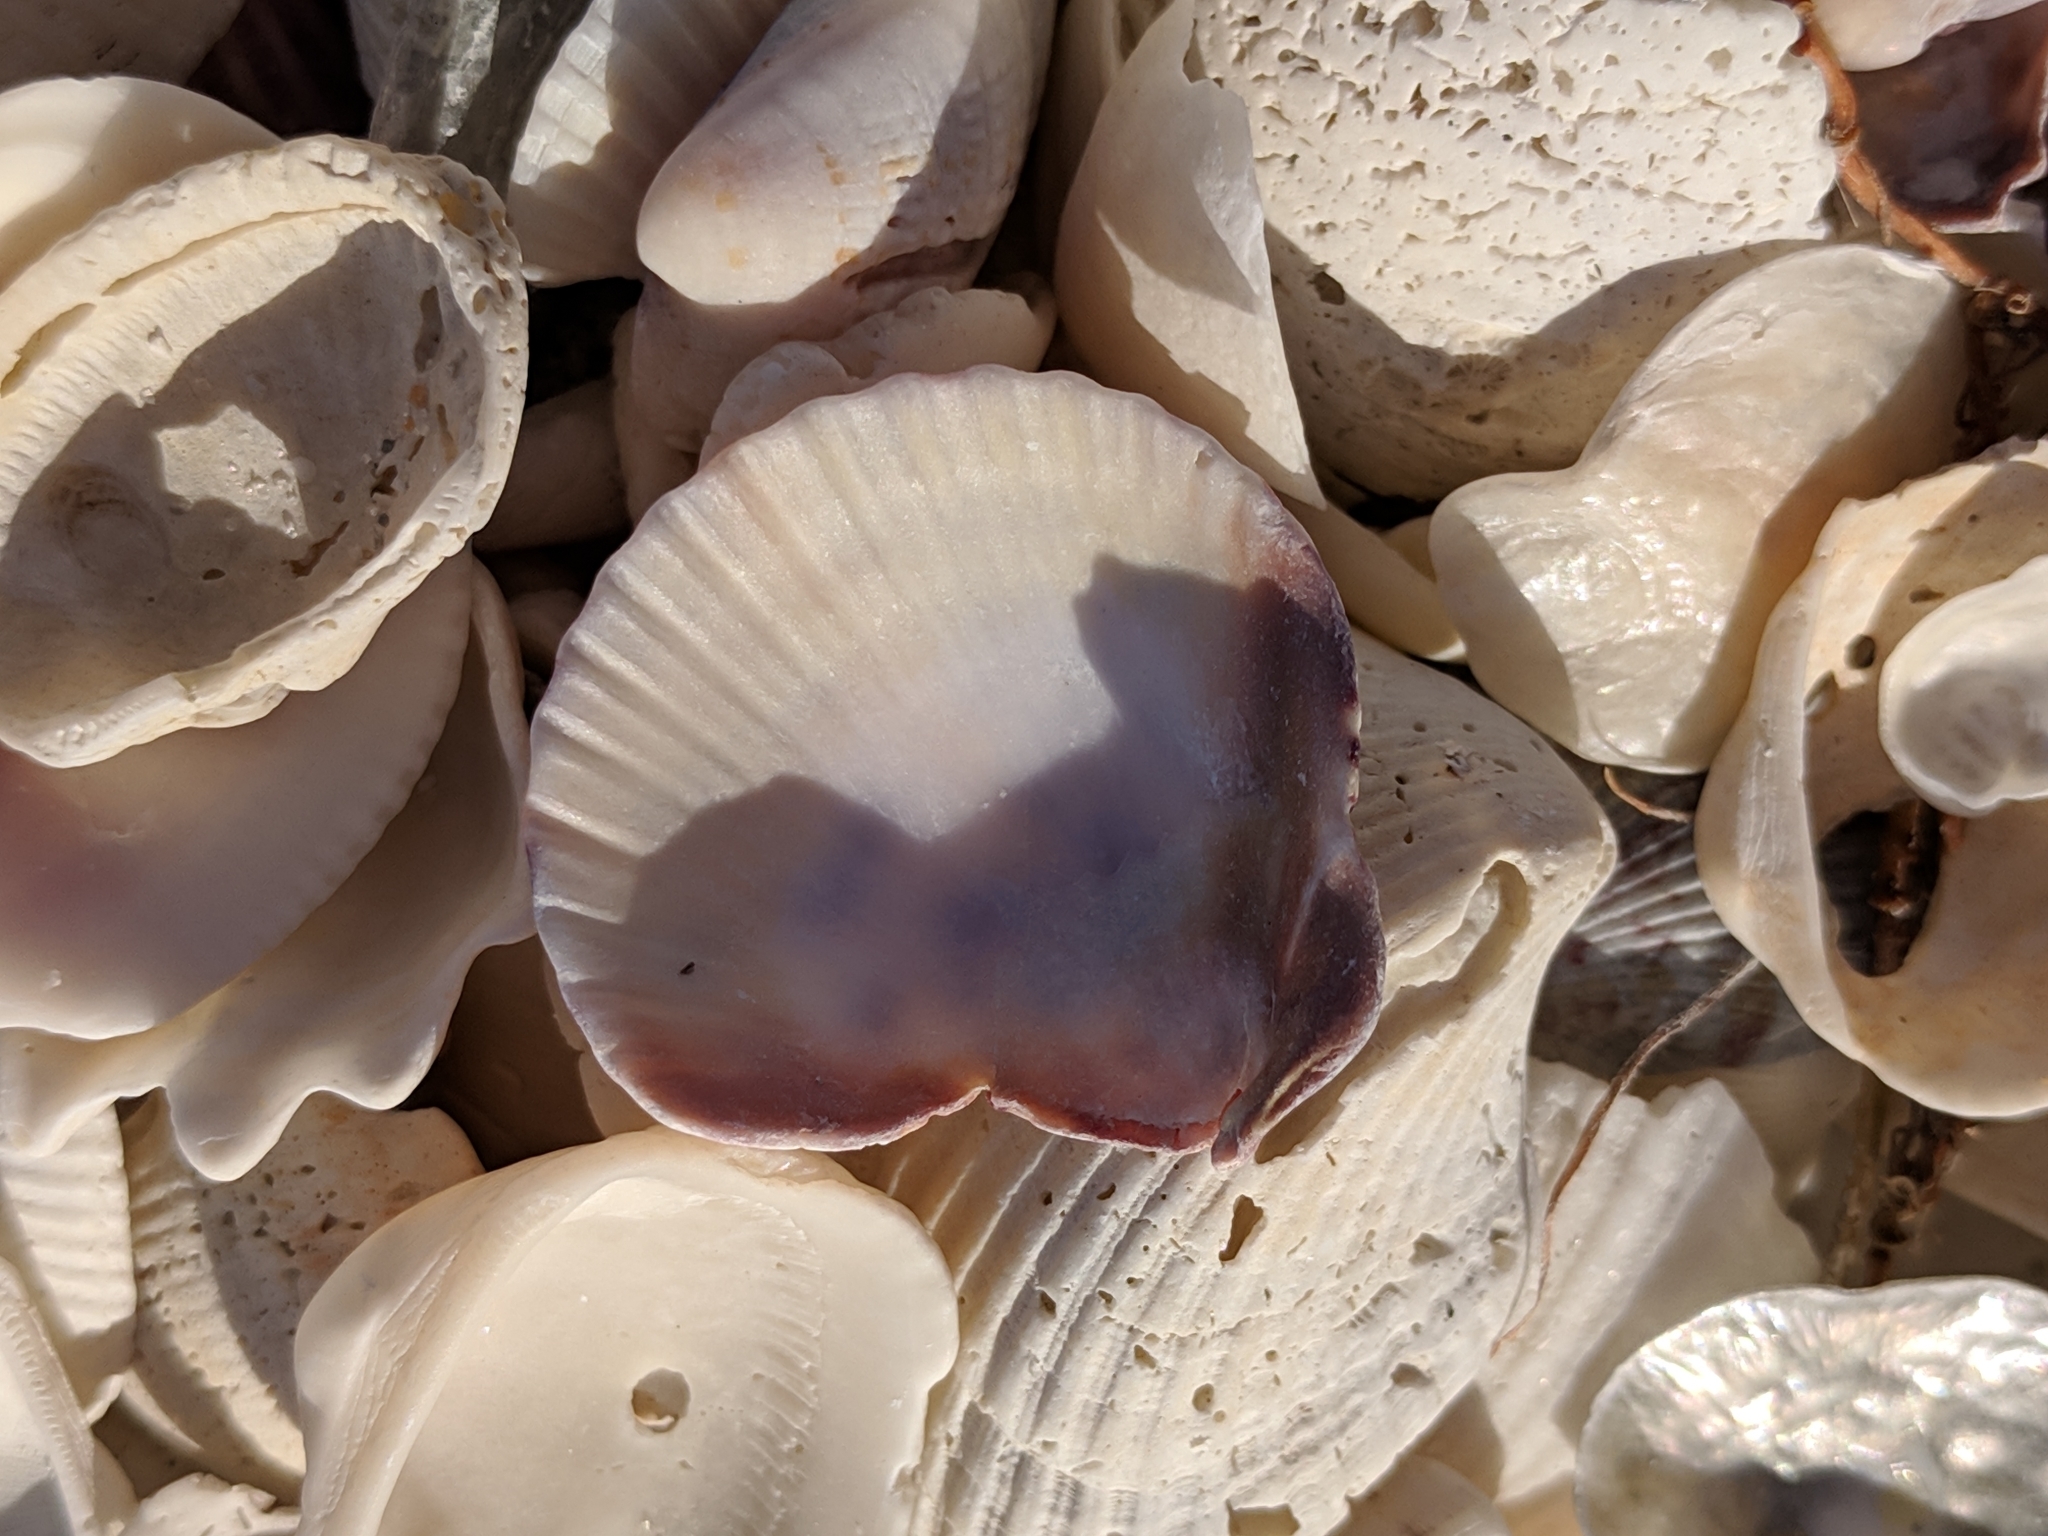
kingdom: Animalia
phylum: Mollusca
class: Bivalvia
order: Pectinida
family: Pectinidae
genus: Argopecten
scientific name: Argopecten gibbus
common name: Atlantic calico scallop
